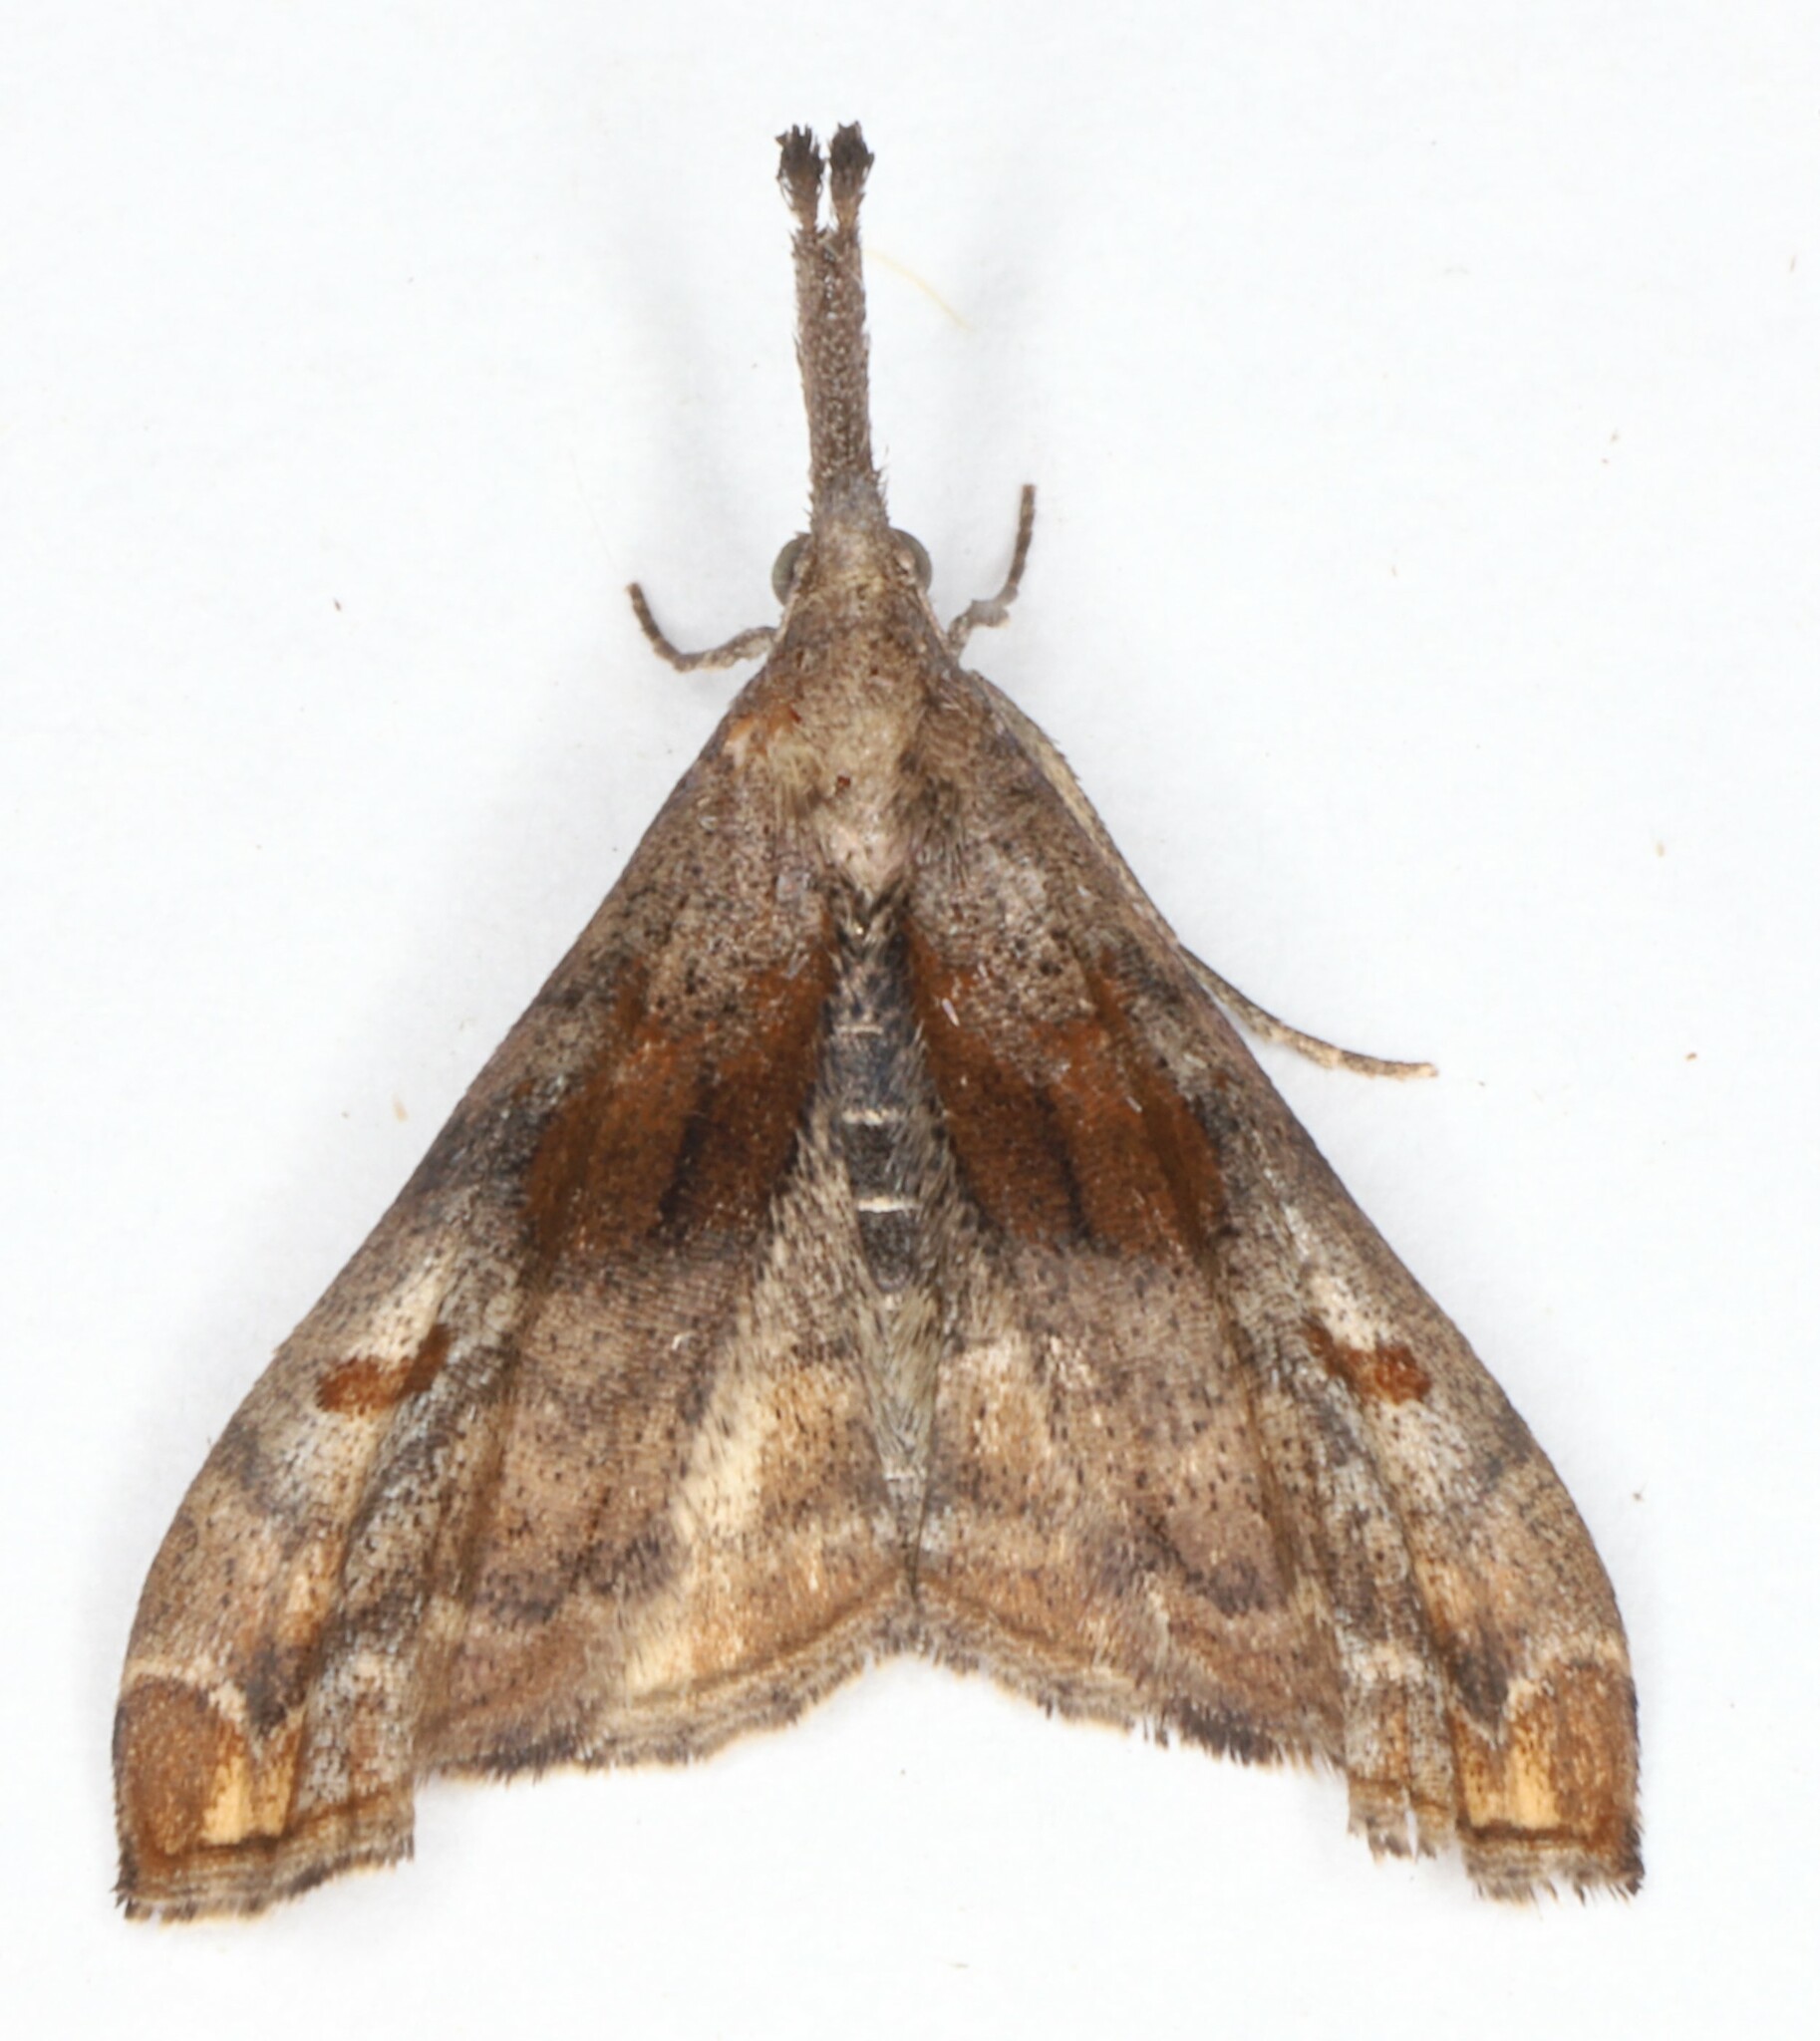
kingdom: Animalia
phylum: Arthropoda
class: Insecta
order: Lepidoptera
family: Erebidae
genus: Palthis
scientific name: Palthis angulalis
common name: Dark-spotted palthis moth
